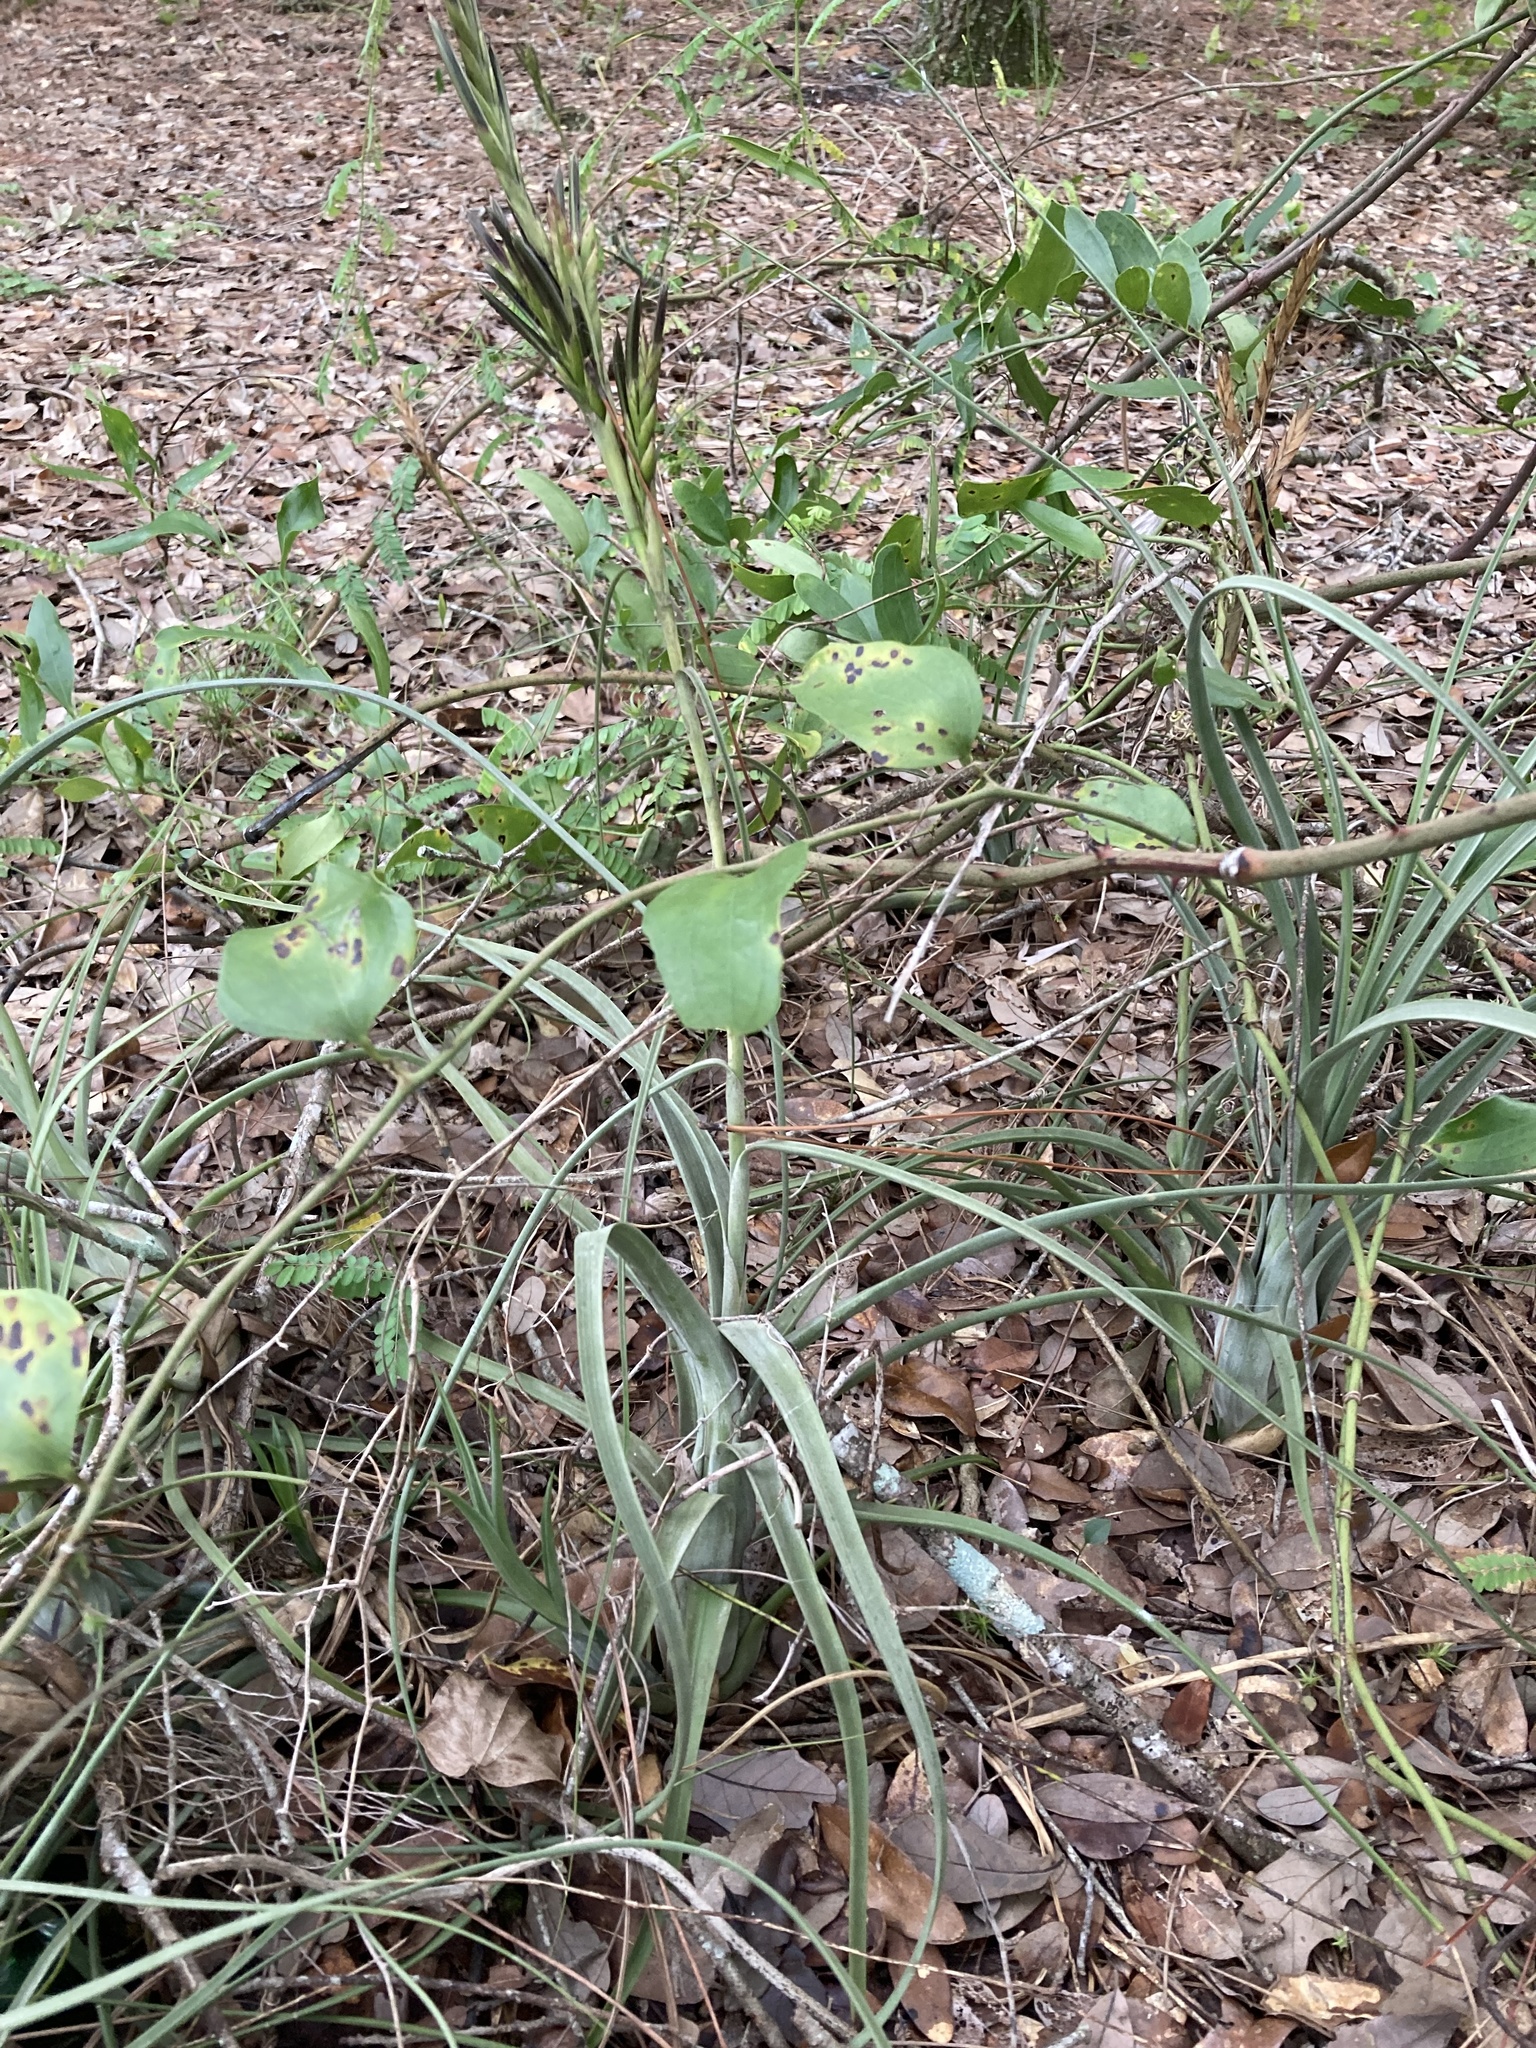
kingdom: Plantae
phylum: Tracheophyta
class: Liliopsida
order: Poales
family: Bromeliaceae
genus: Tillandsia
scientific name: Tillandsia balbisiana
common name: Northern needleleaf
